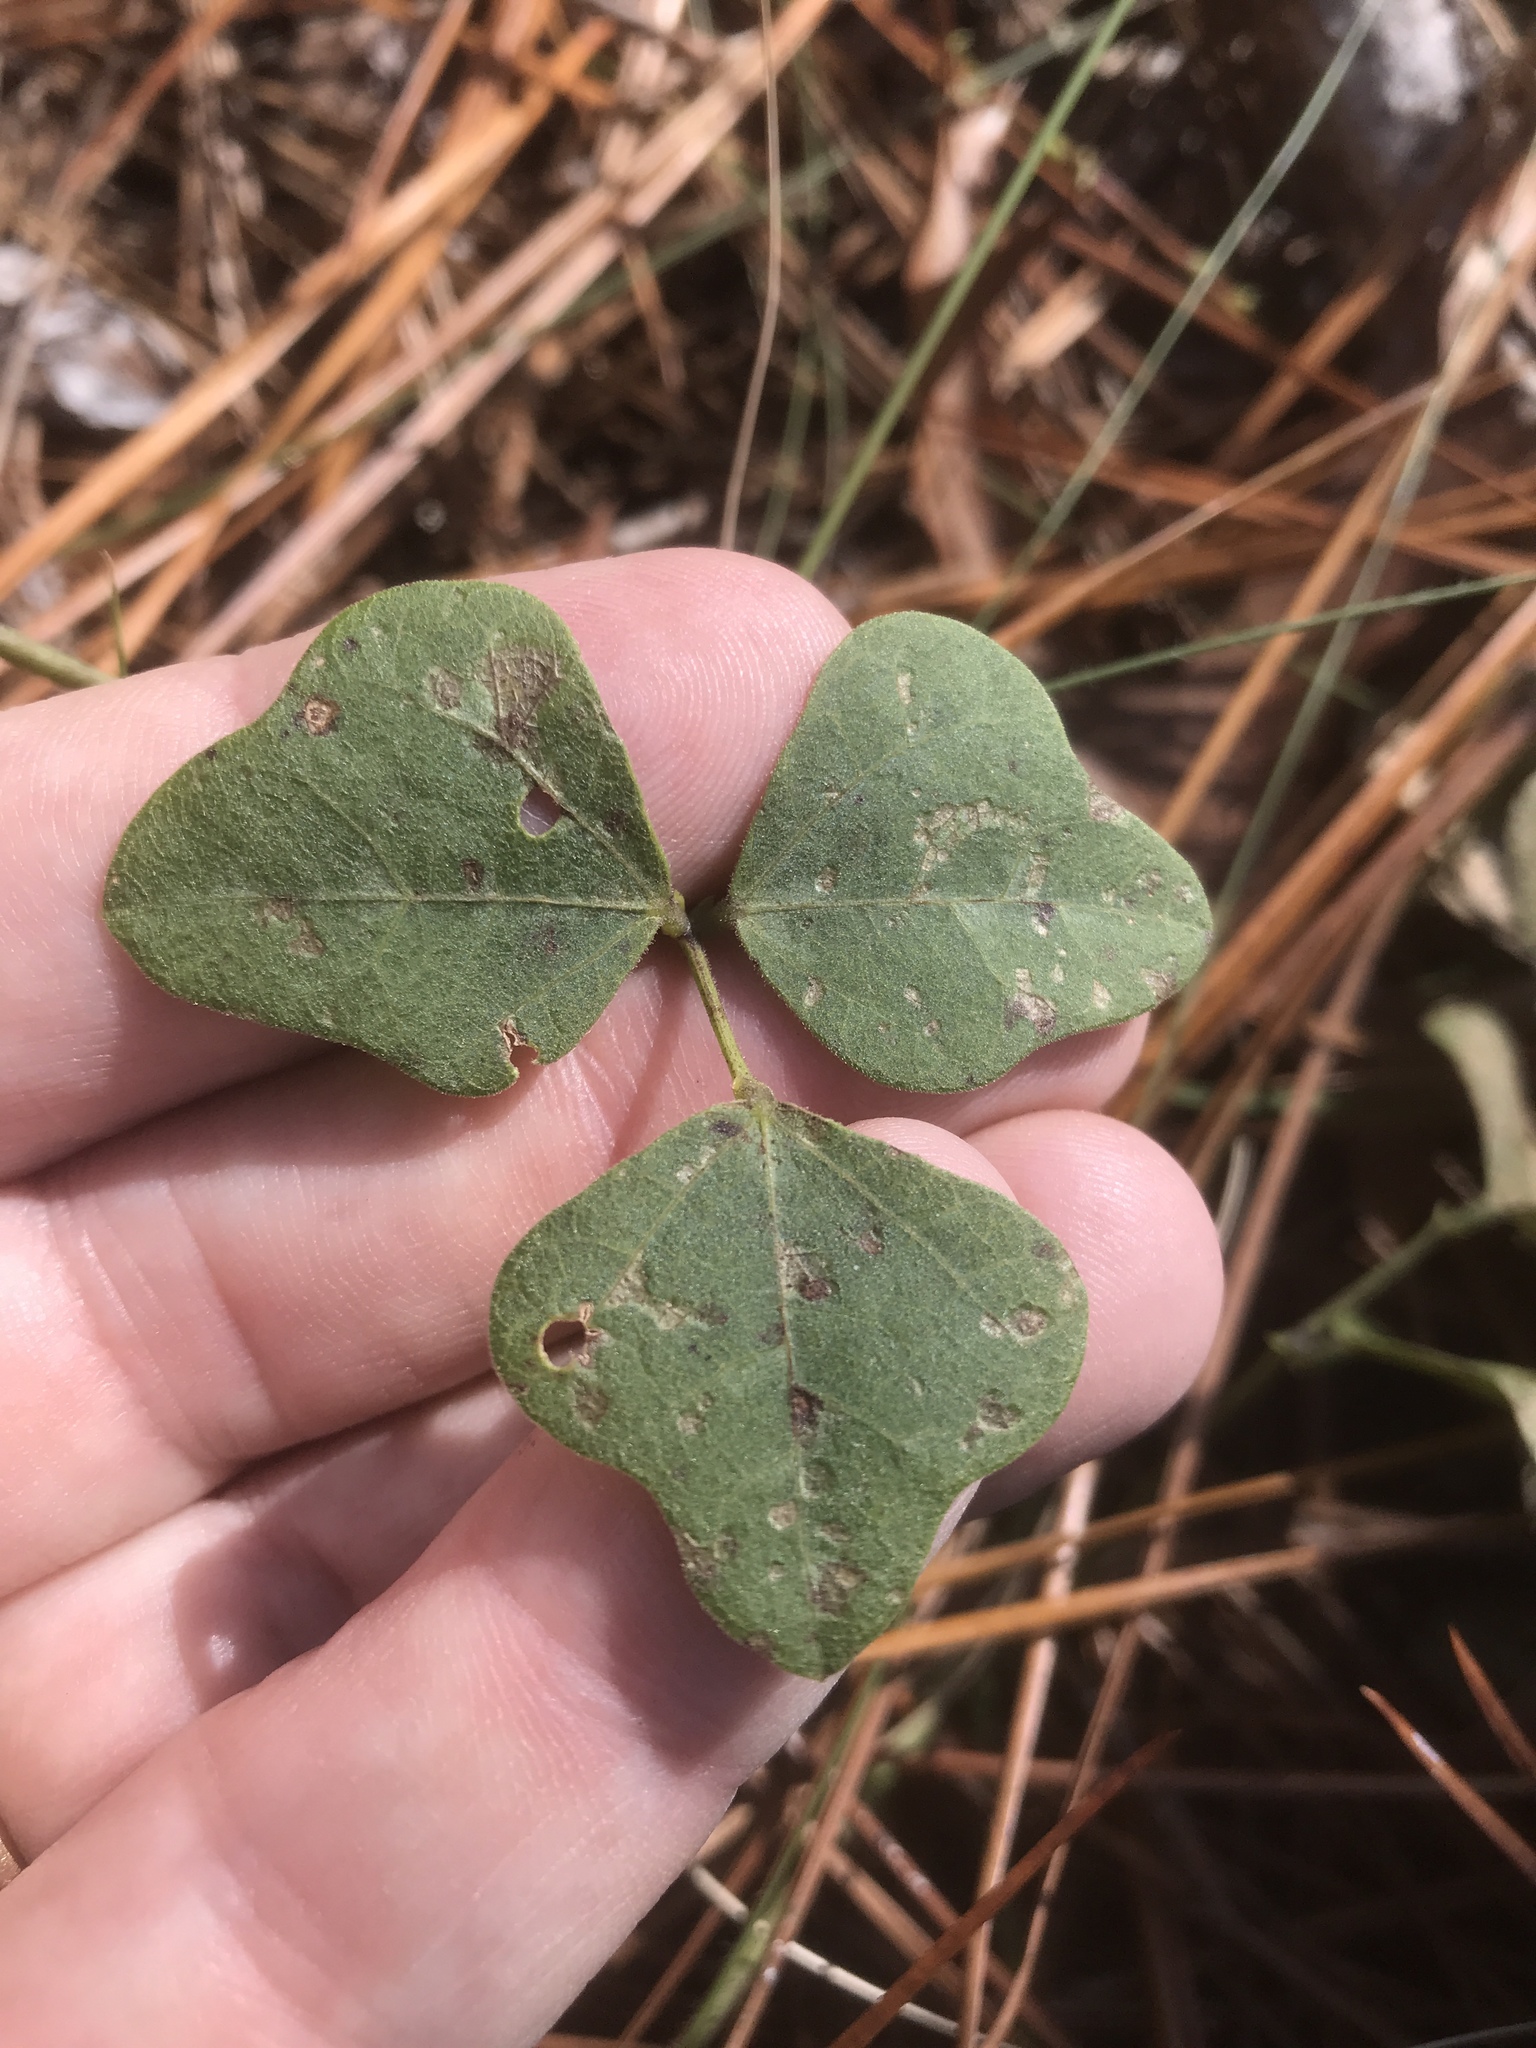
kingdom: Plantae
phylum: Tracheophyta
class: Magnoliopsida
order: Fabales
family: Fabaceae
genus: Phaseolus
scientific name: Phaseolus sinuatus
